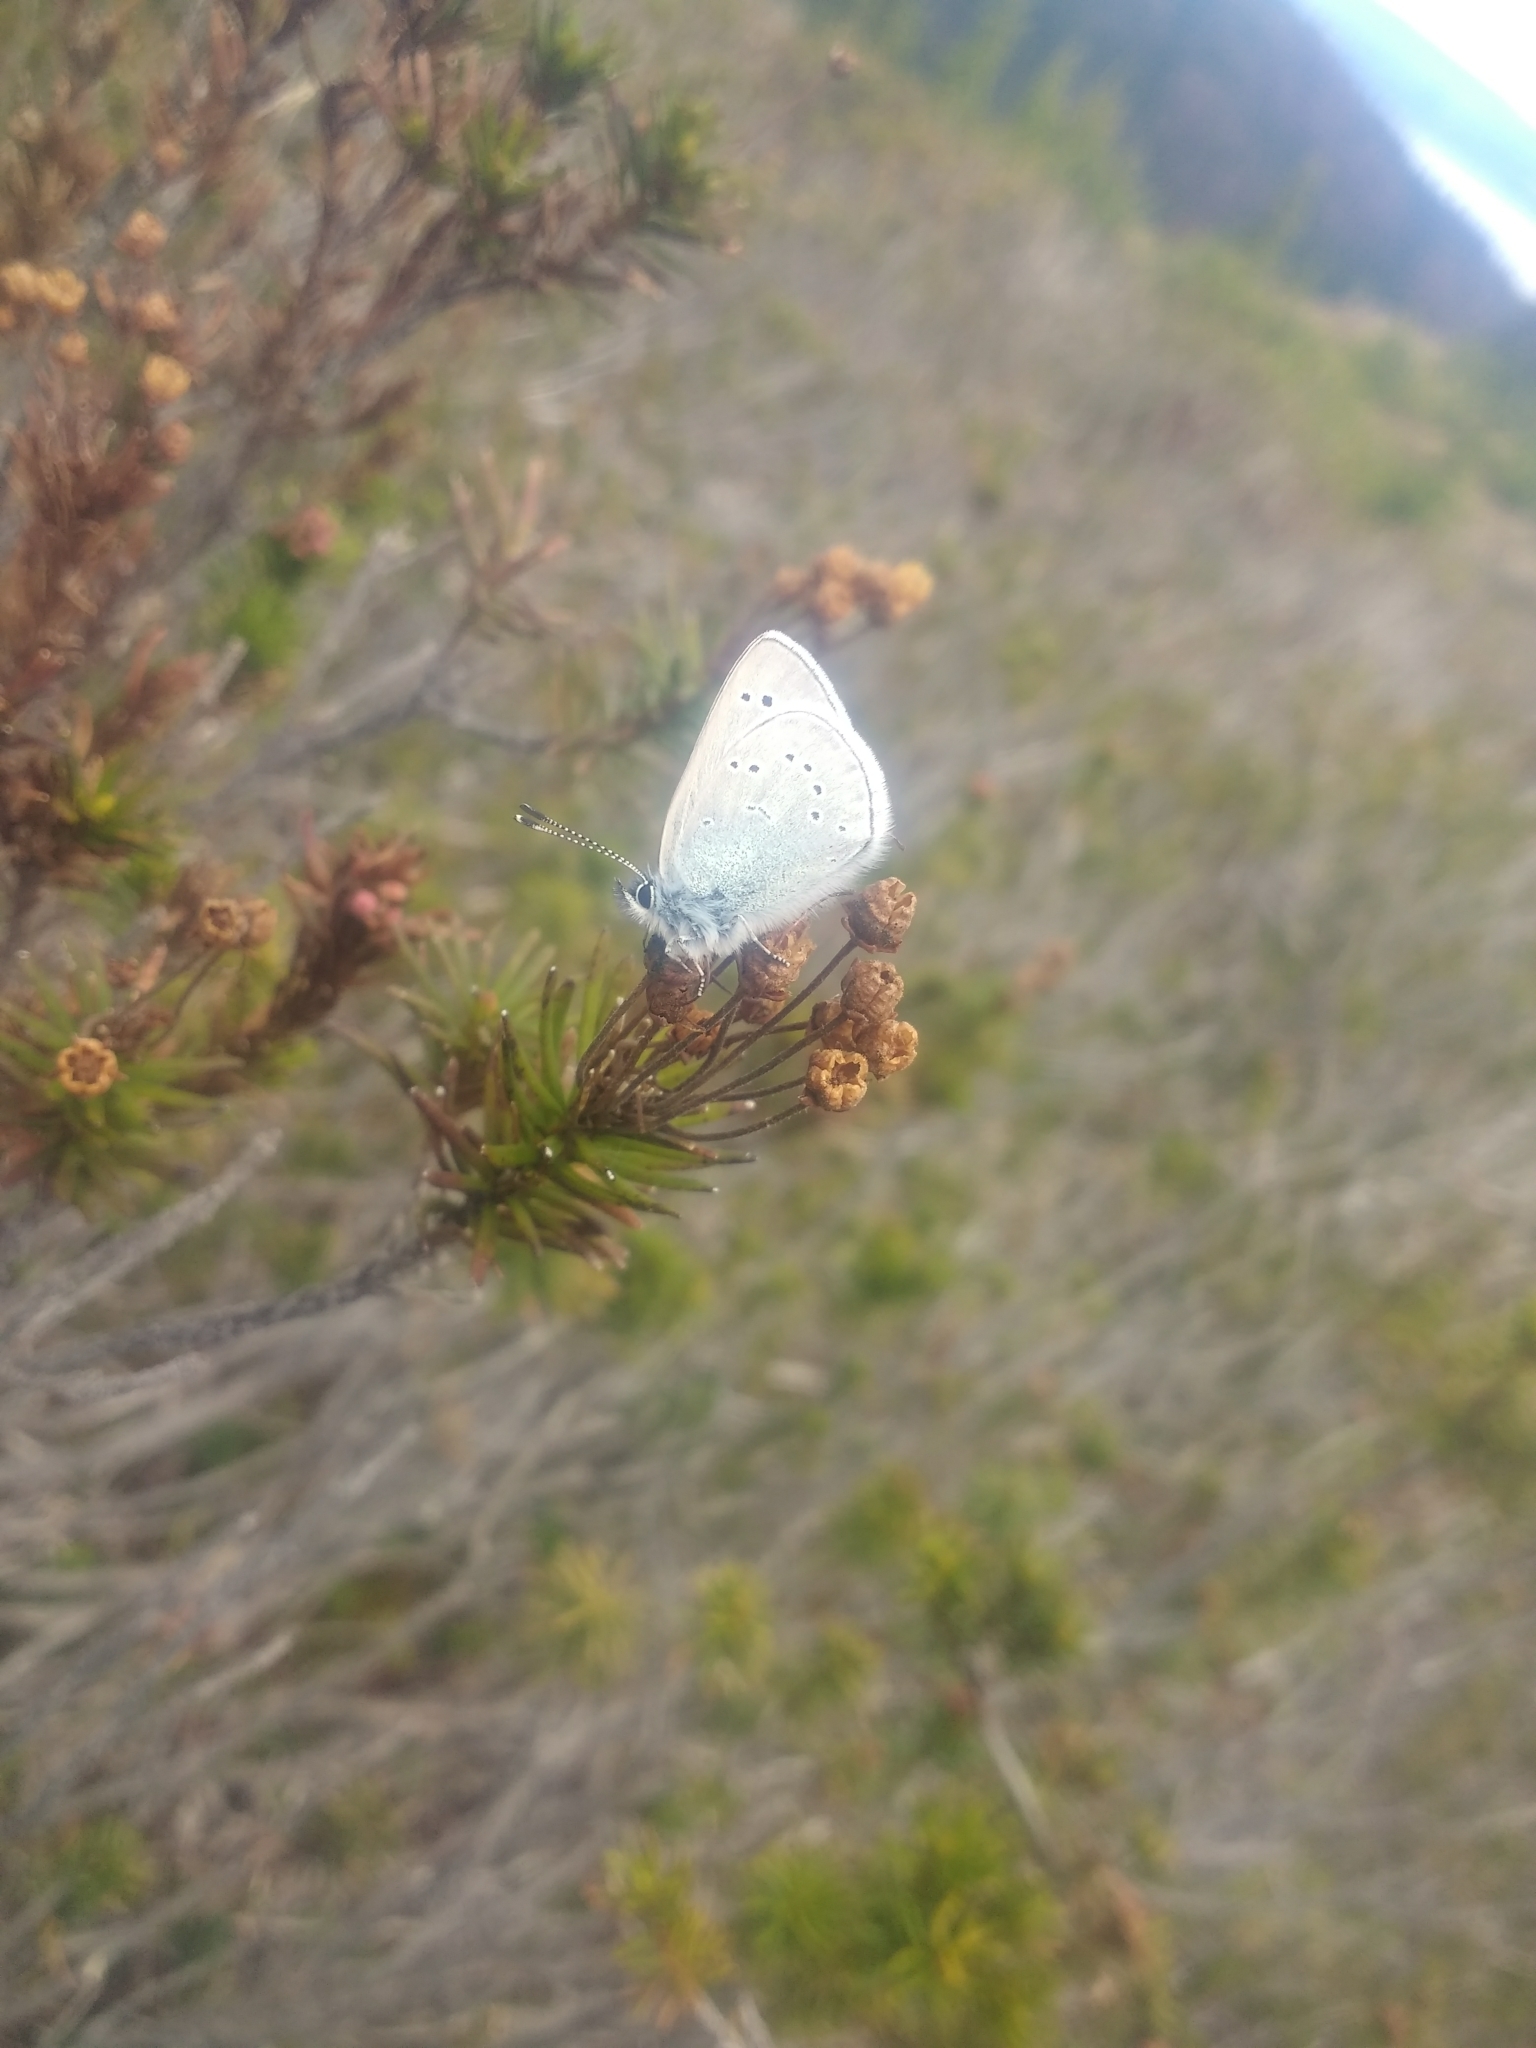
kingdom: Animalia
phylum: Arthropoda
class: Insecta
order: Lepidoptera
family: Lycaenidae
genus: Glaucopsyche
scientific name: Glaucopsyche lygdamus
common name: Silvery blue
